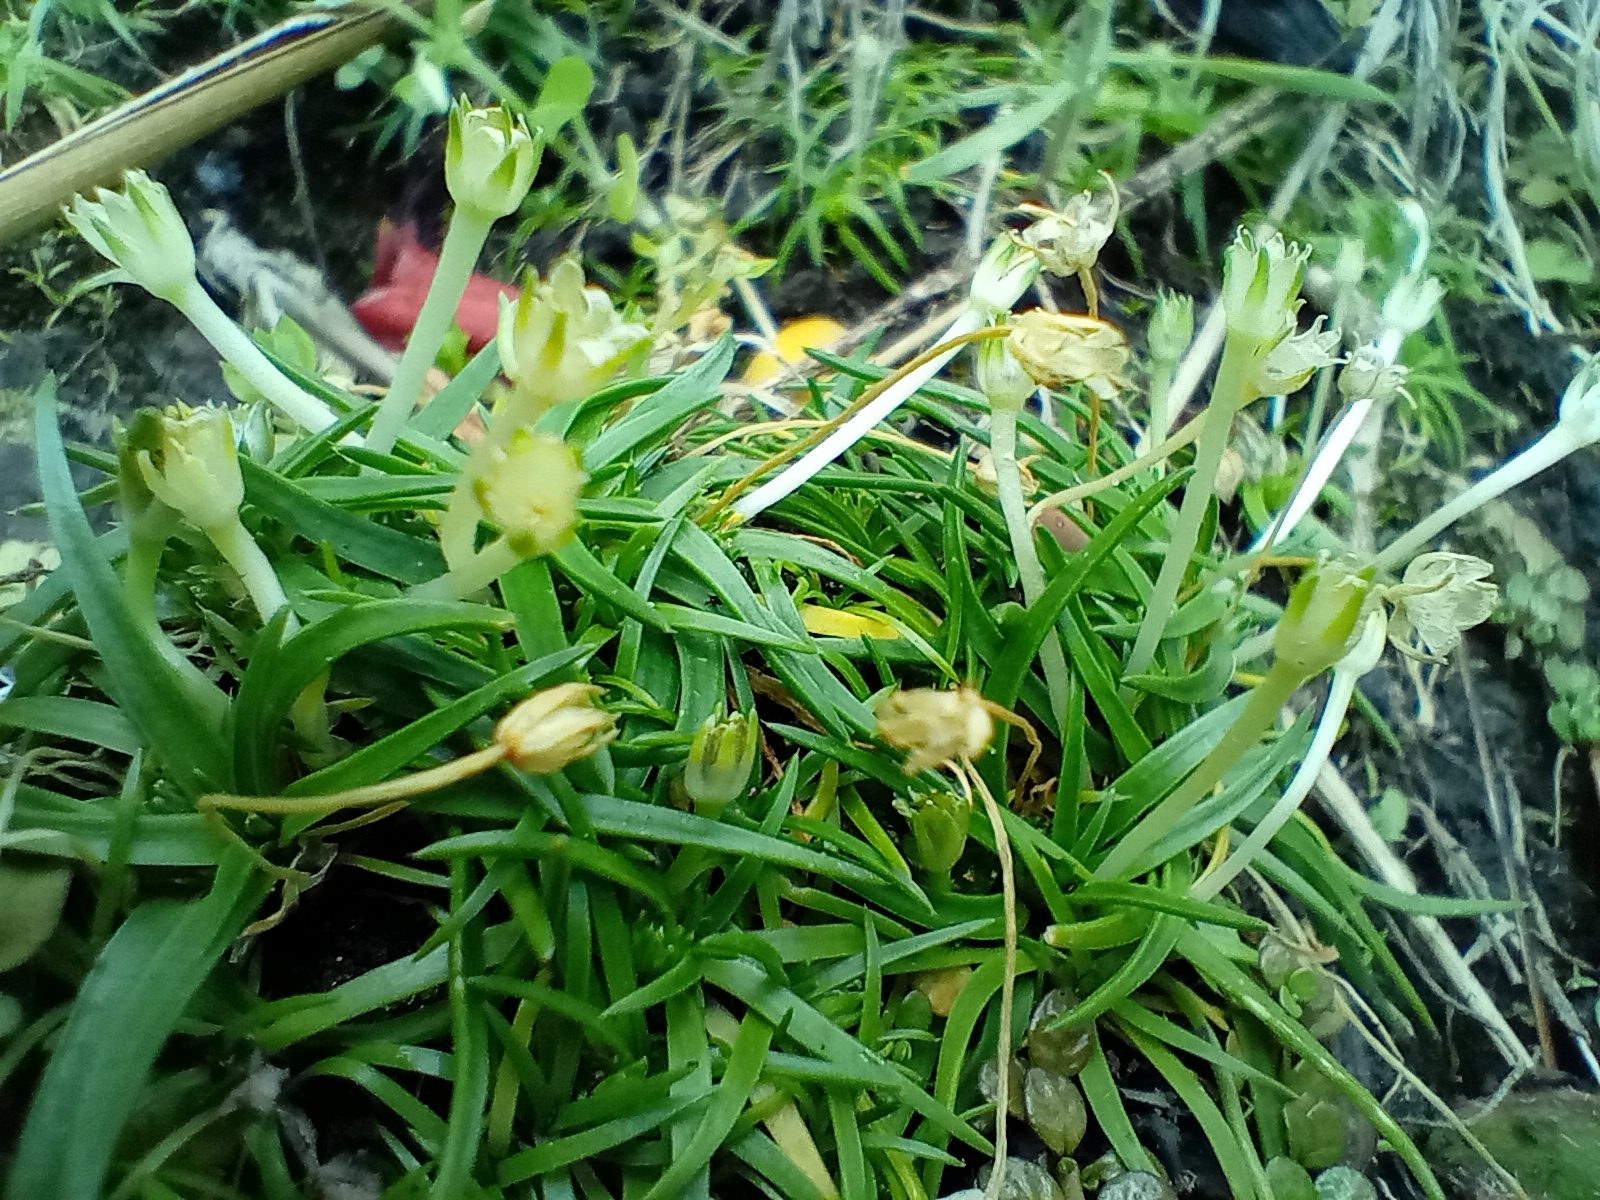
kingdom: Plantae
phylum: Tracheophyta
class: Magnoliopsida
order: Caryophyllales
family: Caryophyllaceae
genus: Colobanthus
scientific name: Colobanthus muelleri
